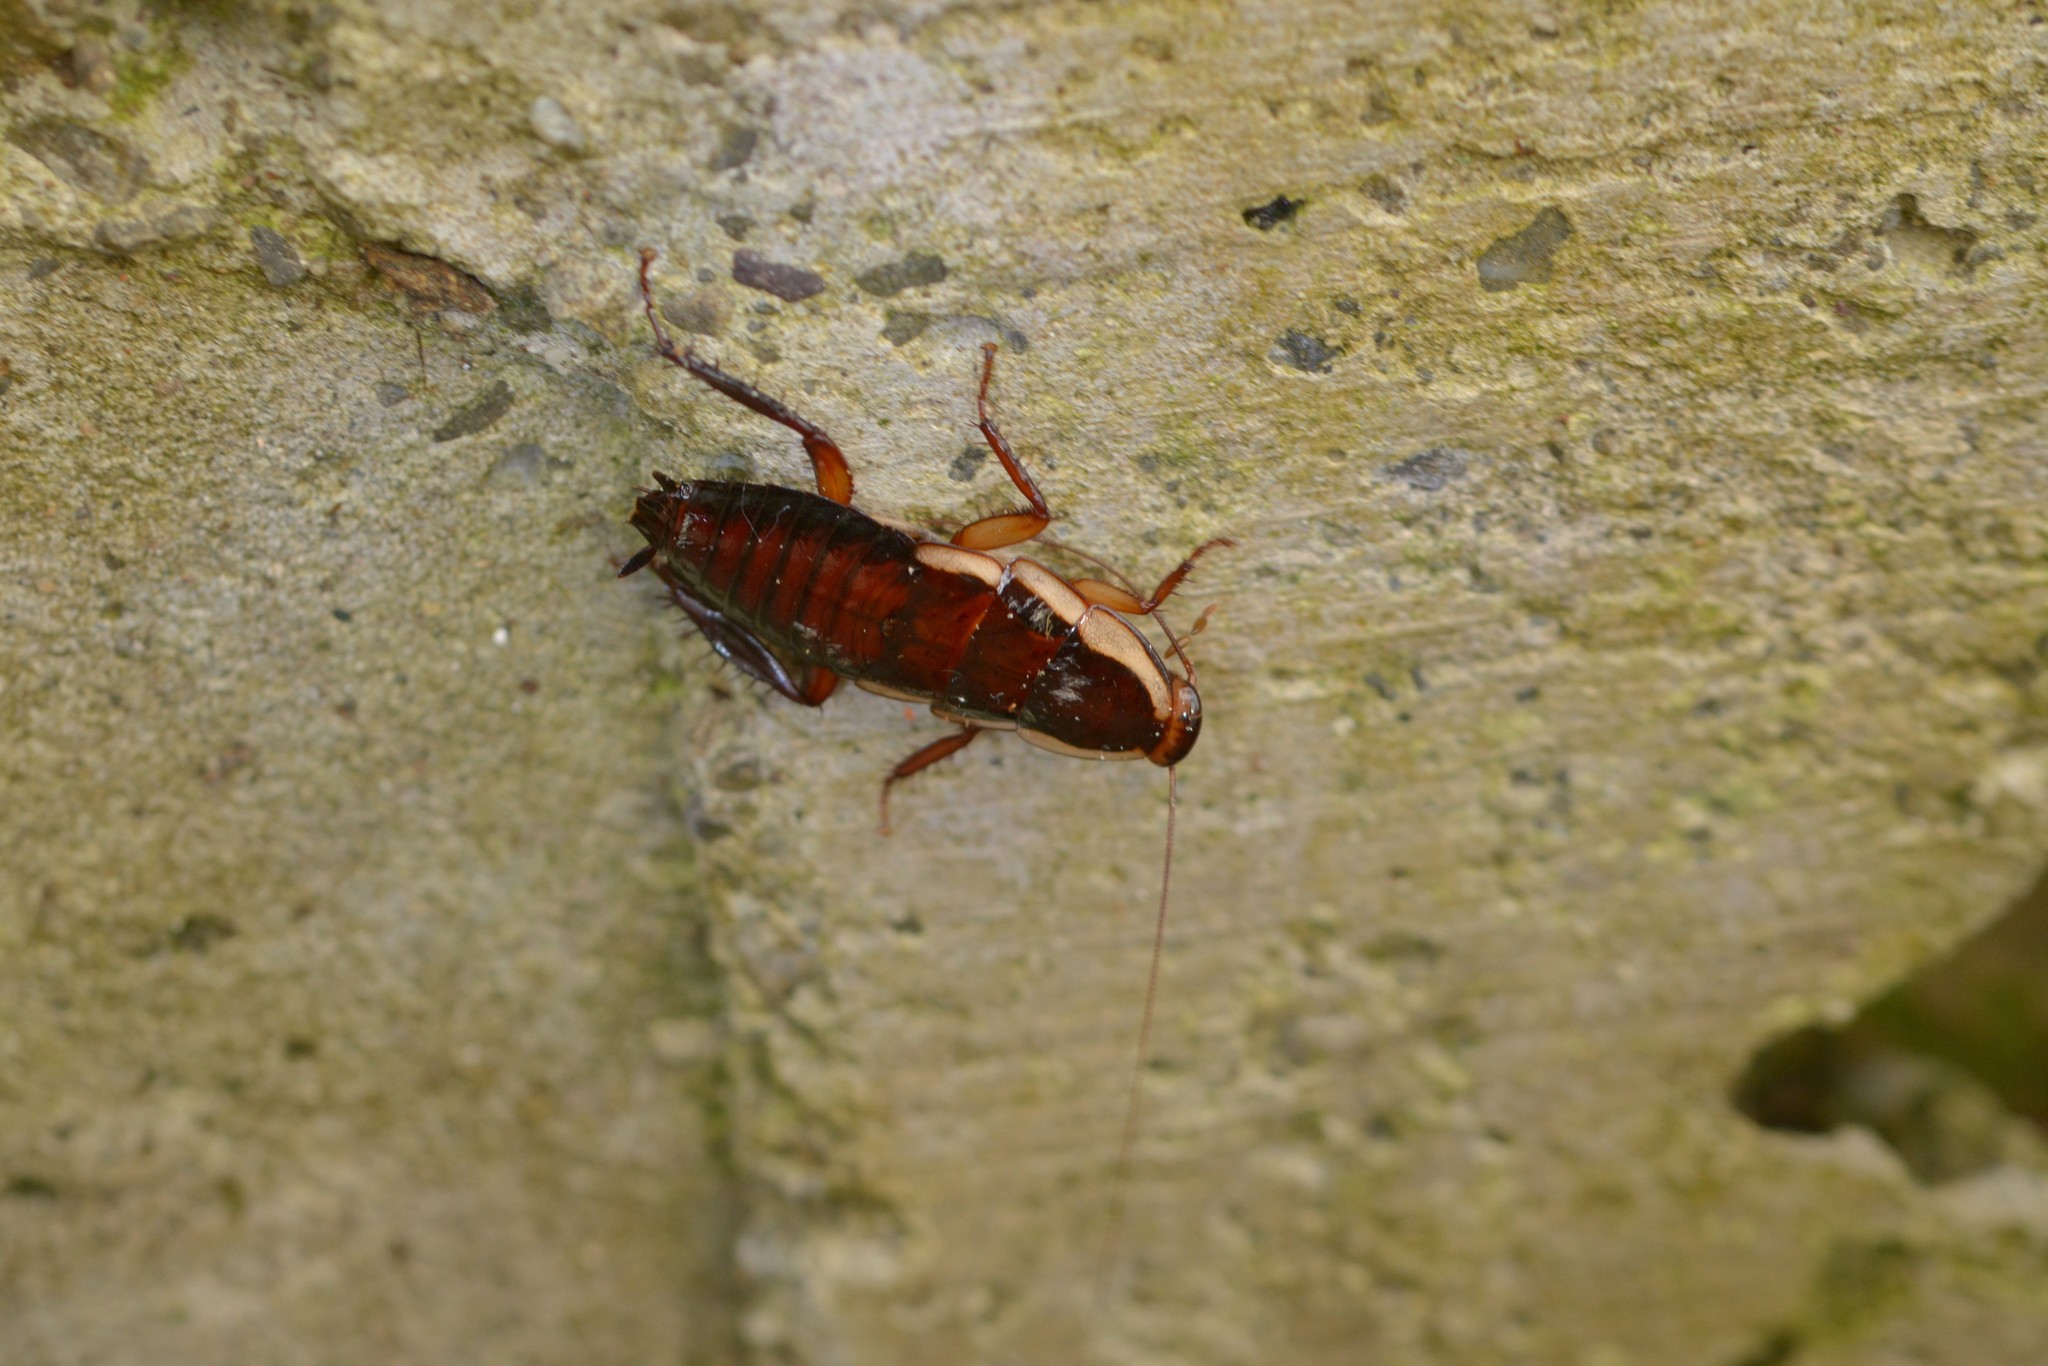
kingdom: Animalia
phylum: Arthropoda
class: Insecta
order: Blattodea
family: Blattidae
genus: Drymaplaneta
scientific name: Drymaplaneta semivitta
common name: Gisborne cockroach
